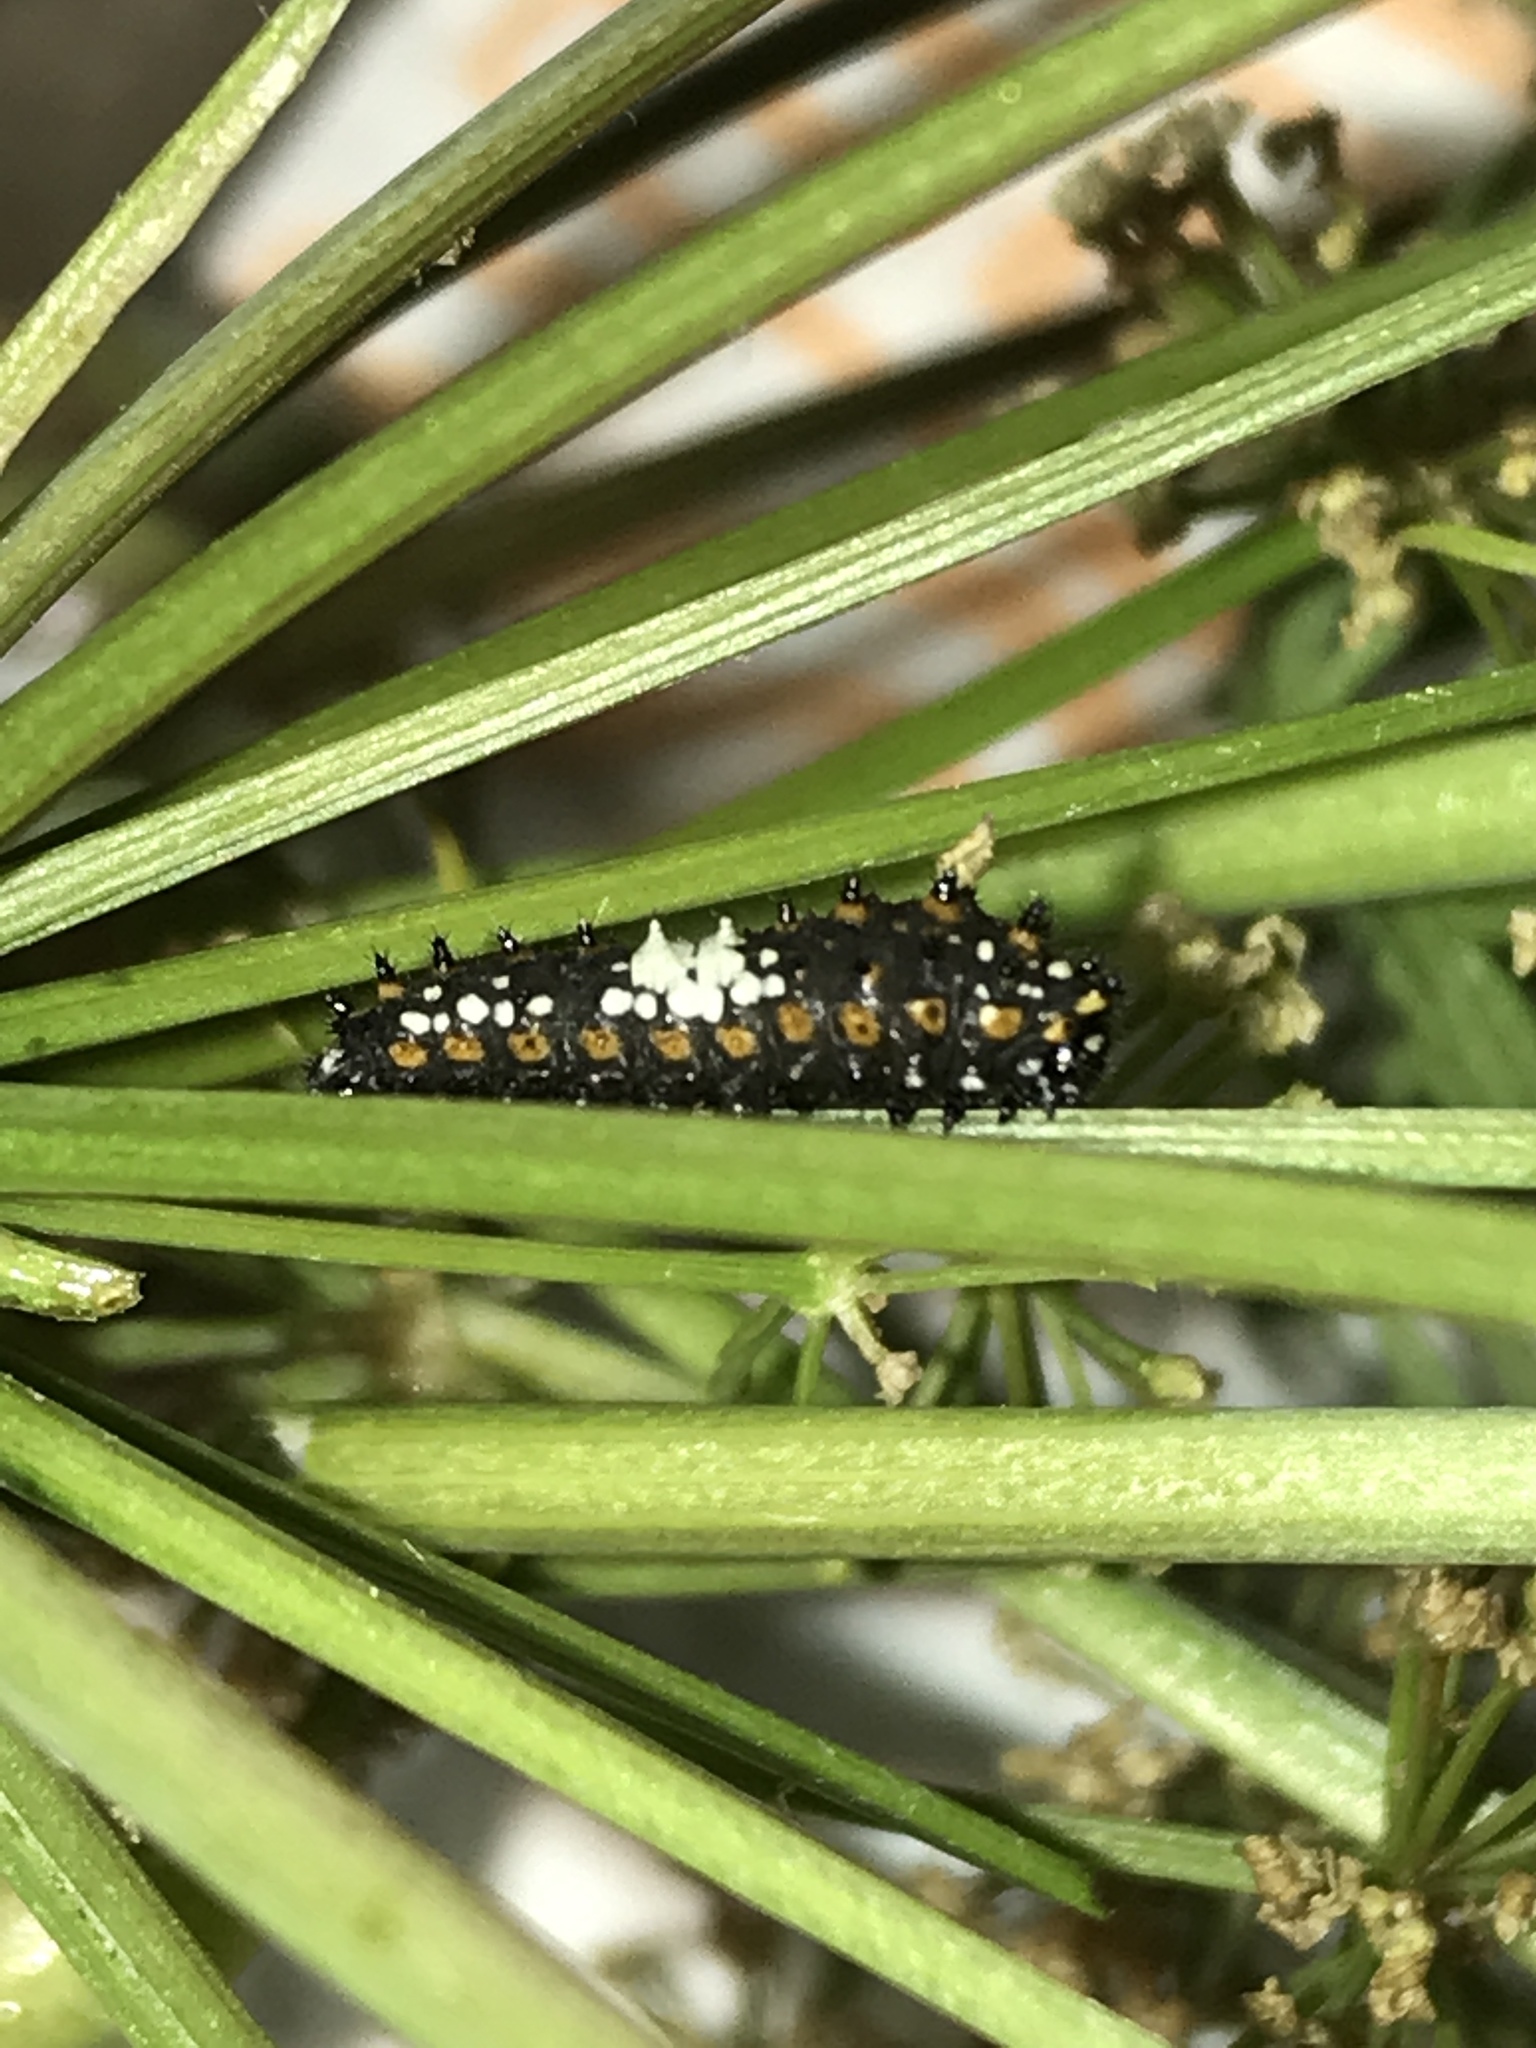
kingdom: Animalia
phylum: Arthropoda
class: Insecta
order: Lepidoptera
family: Papilionidae
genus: Papilio
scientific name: Papilio zelicaon
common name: Anise swallowtail
